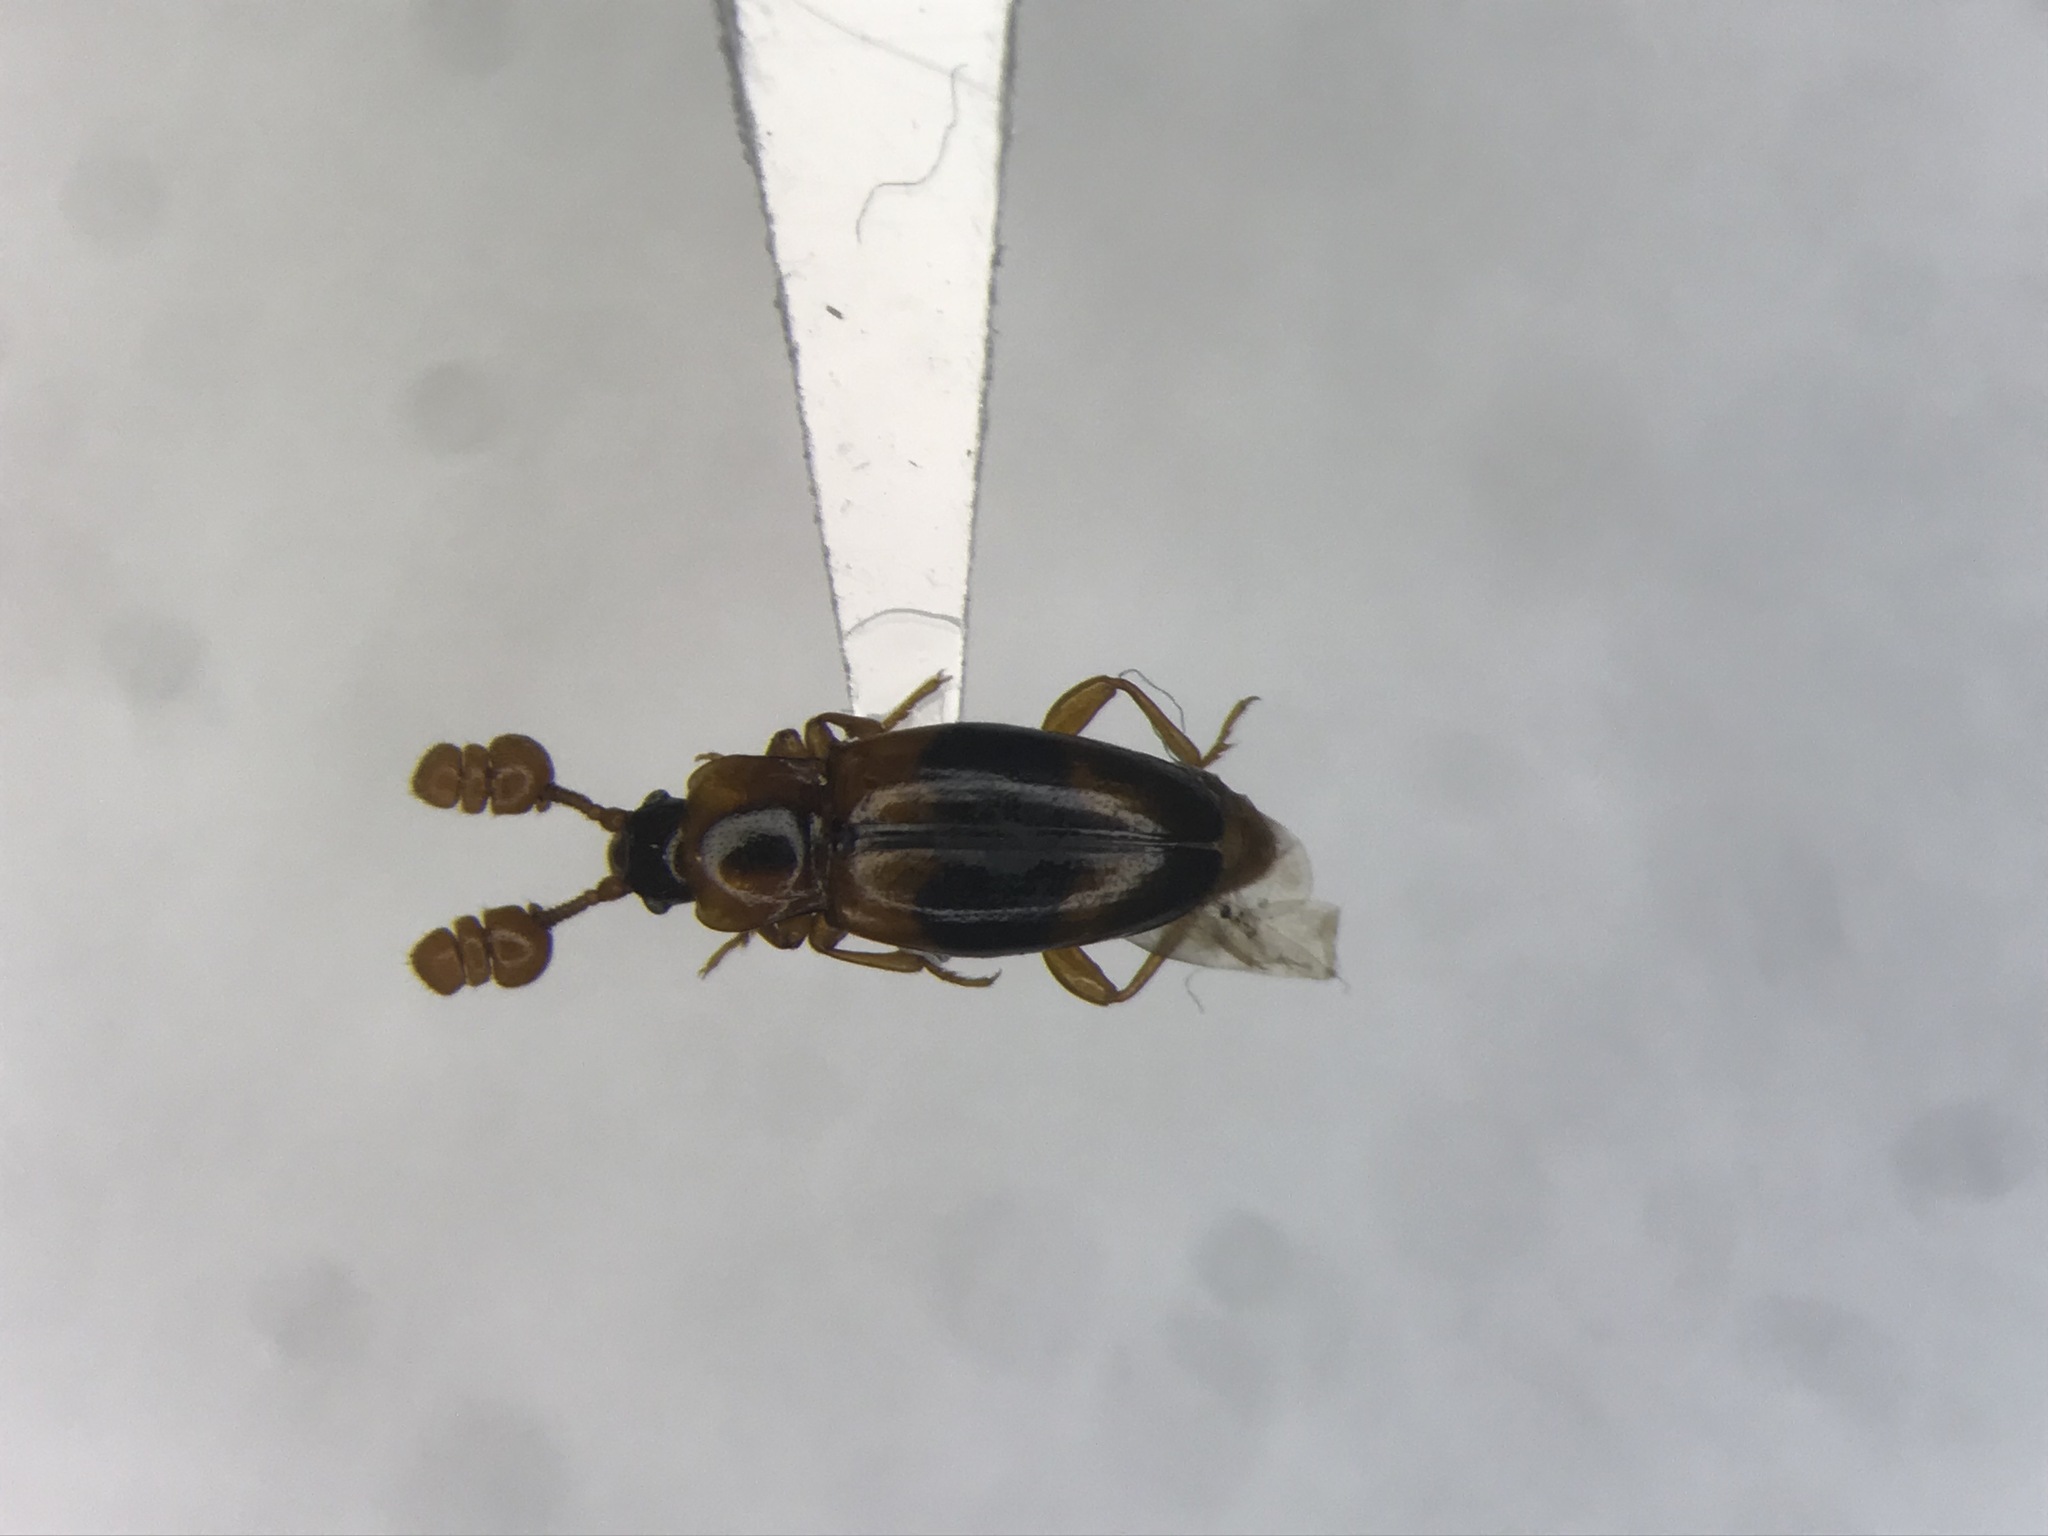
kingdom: Animalia
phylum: Arthropoda
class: Insecta
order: Coleoptera
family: Endomychidae
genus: Phymaphora
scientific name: Phymaphora pulchella
